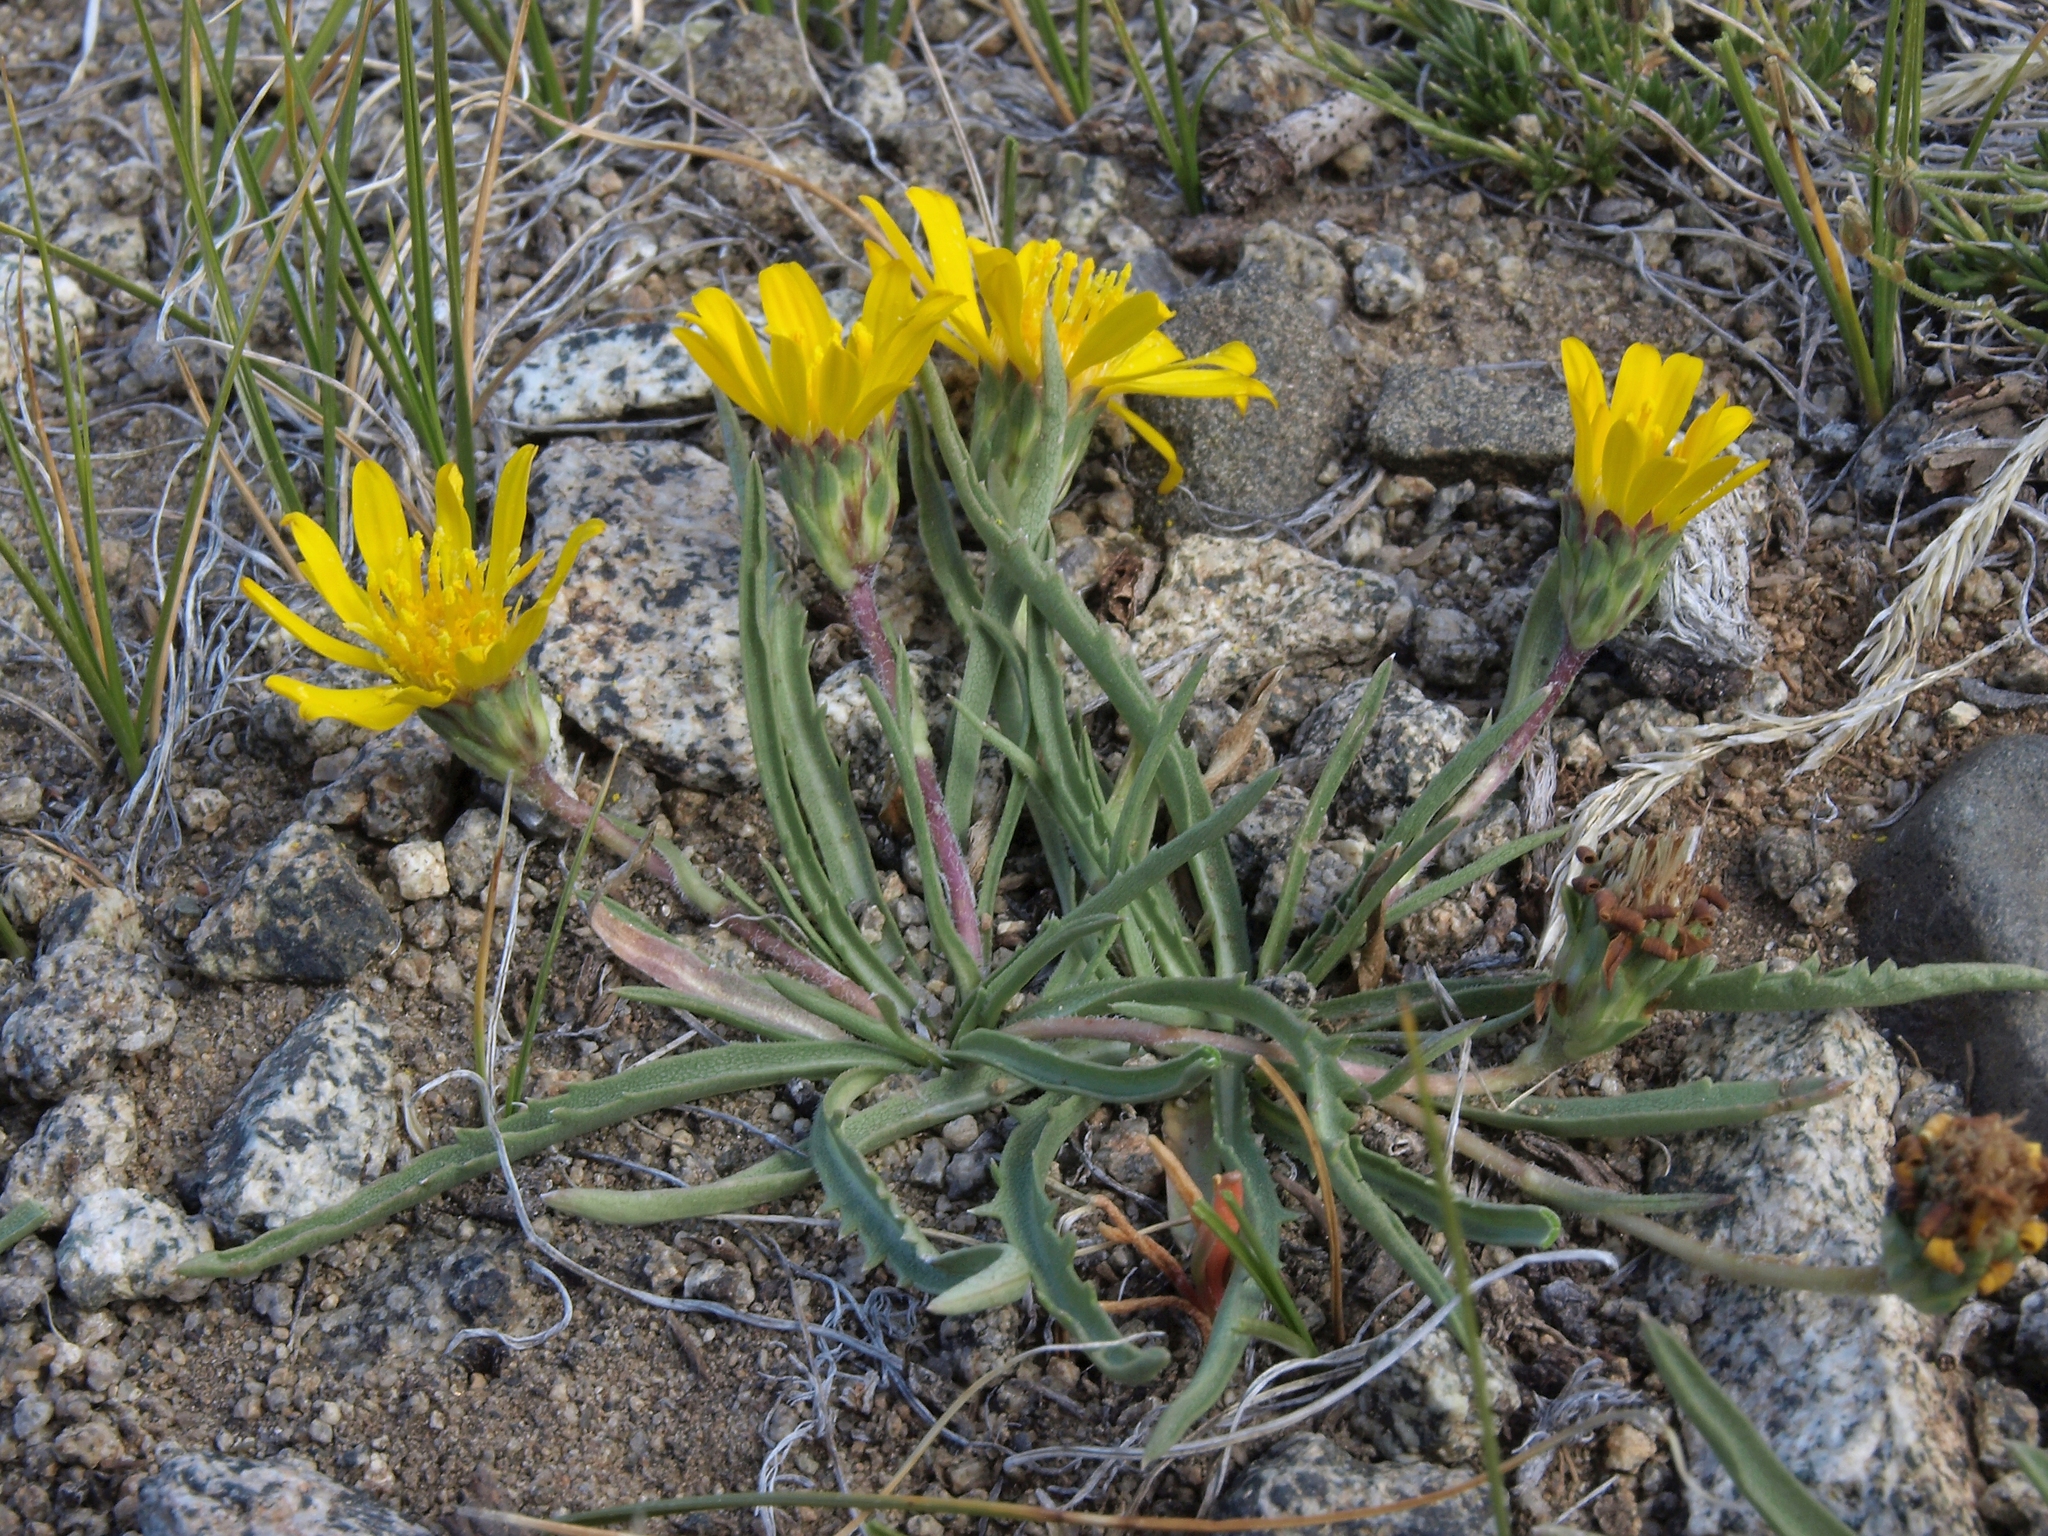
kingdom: Plantae
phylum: Tracheophyta
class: Magnoliopsida
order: Asterales
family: Asteraceae
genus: Pyrrocoma
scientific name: Pyrrocoma apargioides
